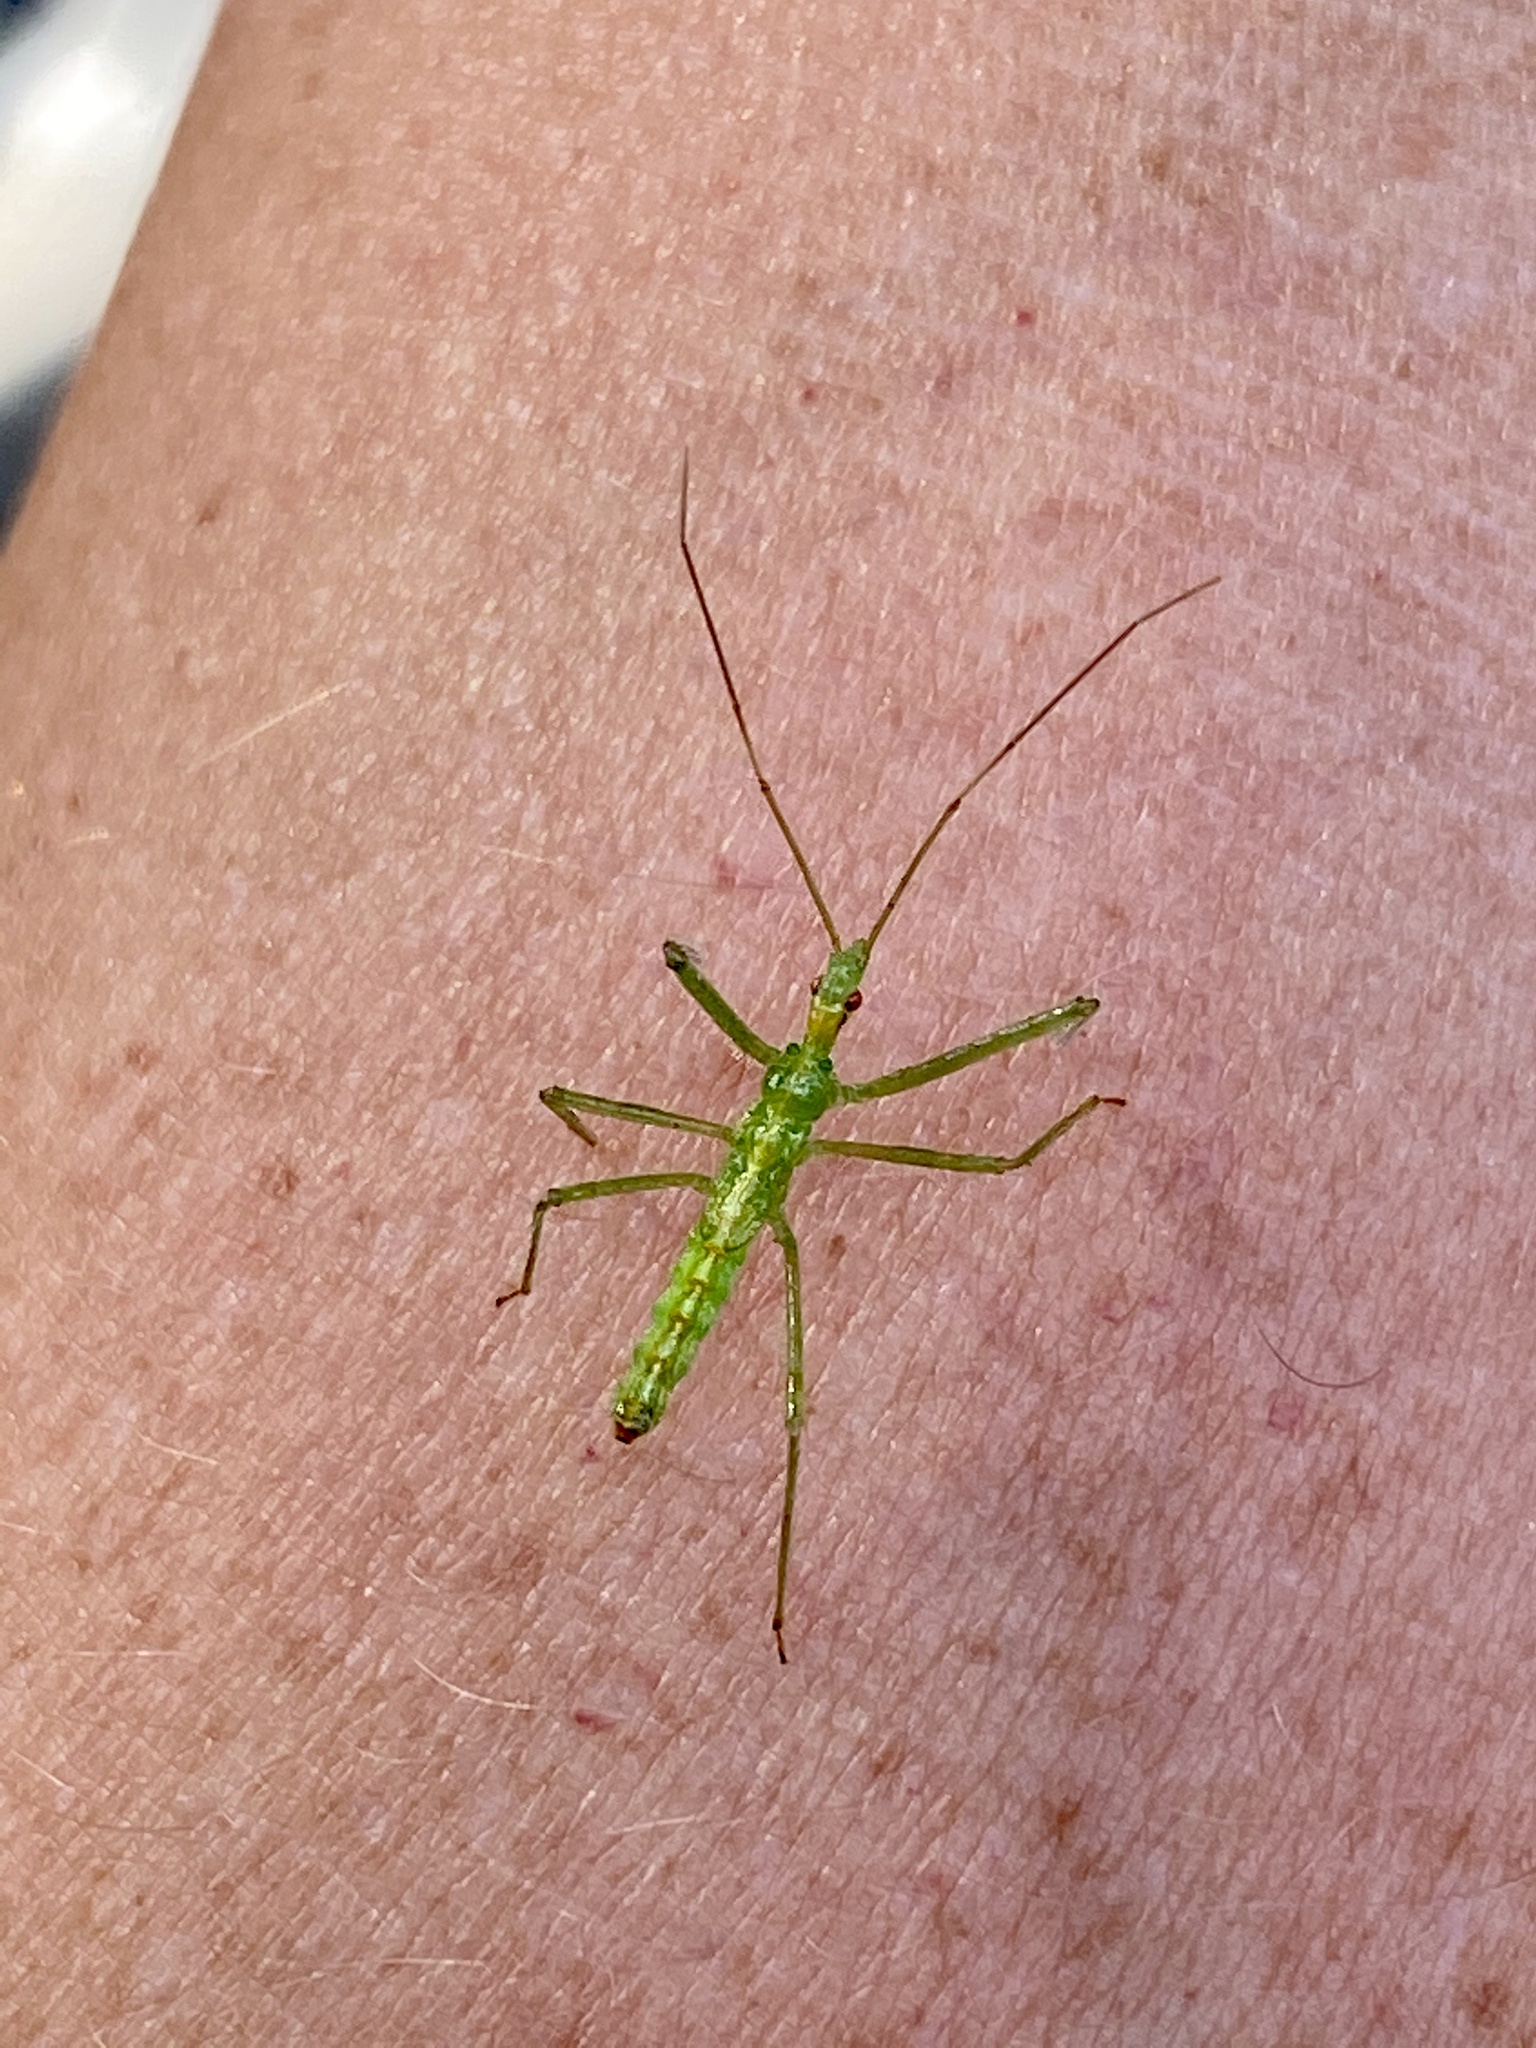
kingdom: Animalia
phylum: Arthropoda
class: Insecta
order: Hemiptera
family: Reduviidae
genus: Zelus
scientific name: Zelus luridus
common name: Pale green assassin bug
